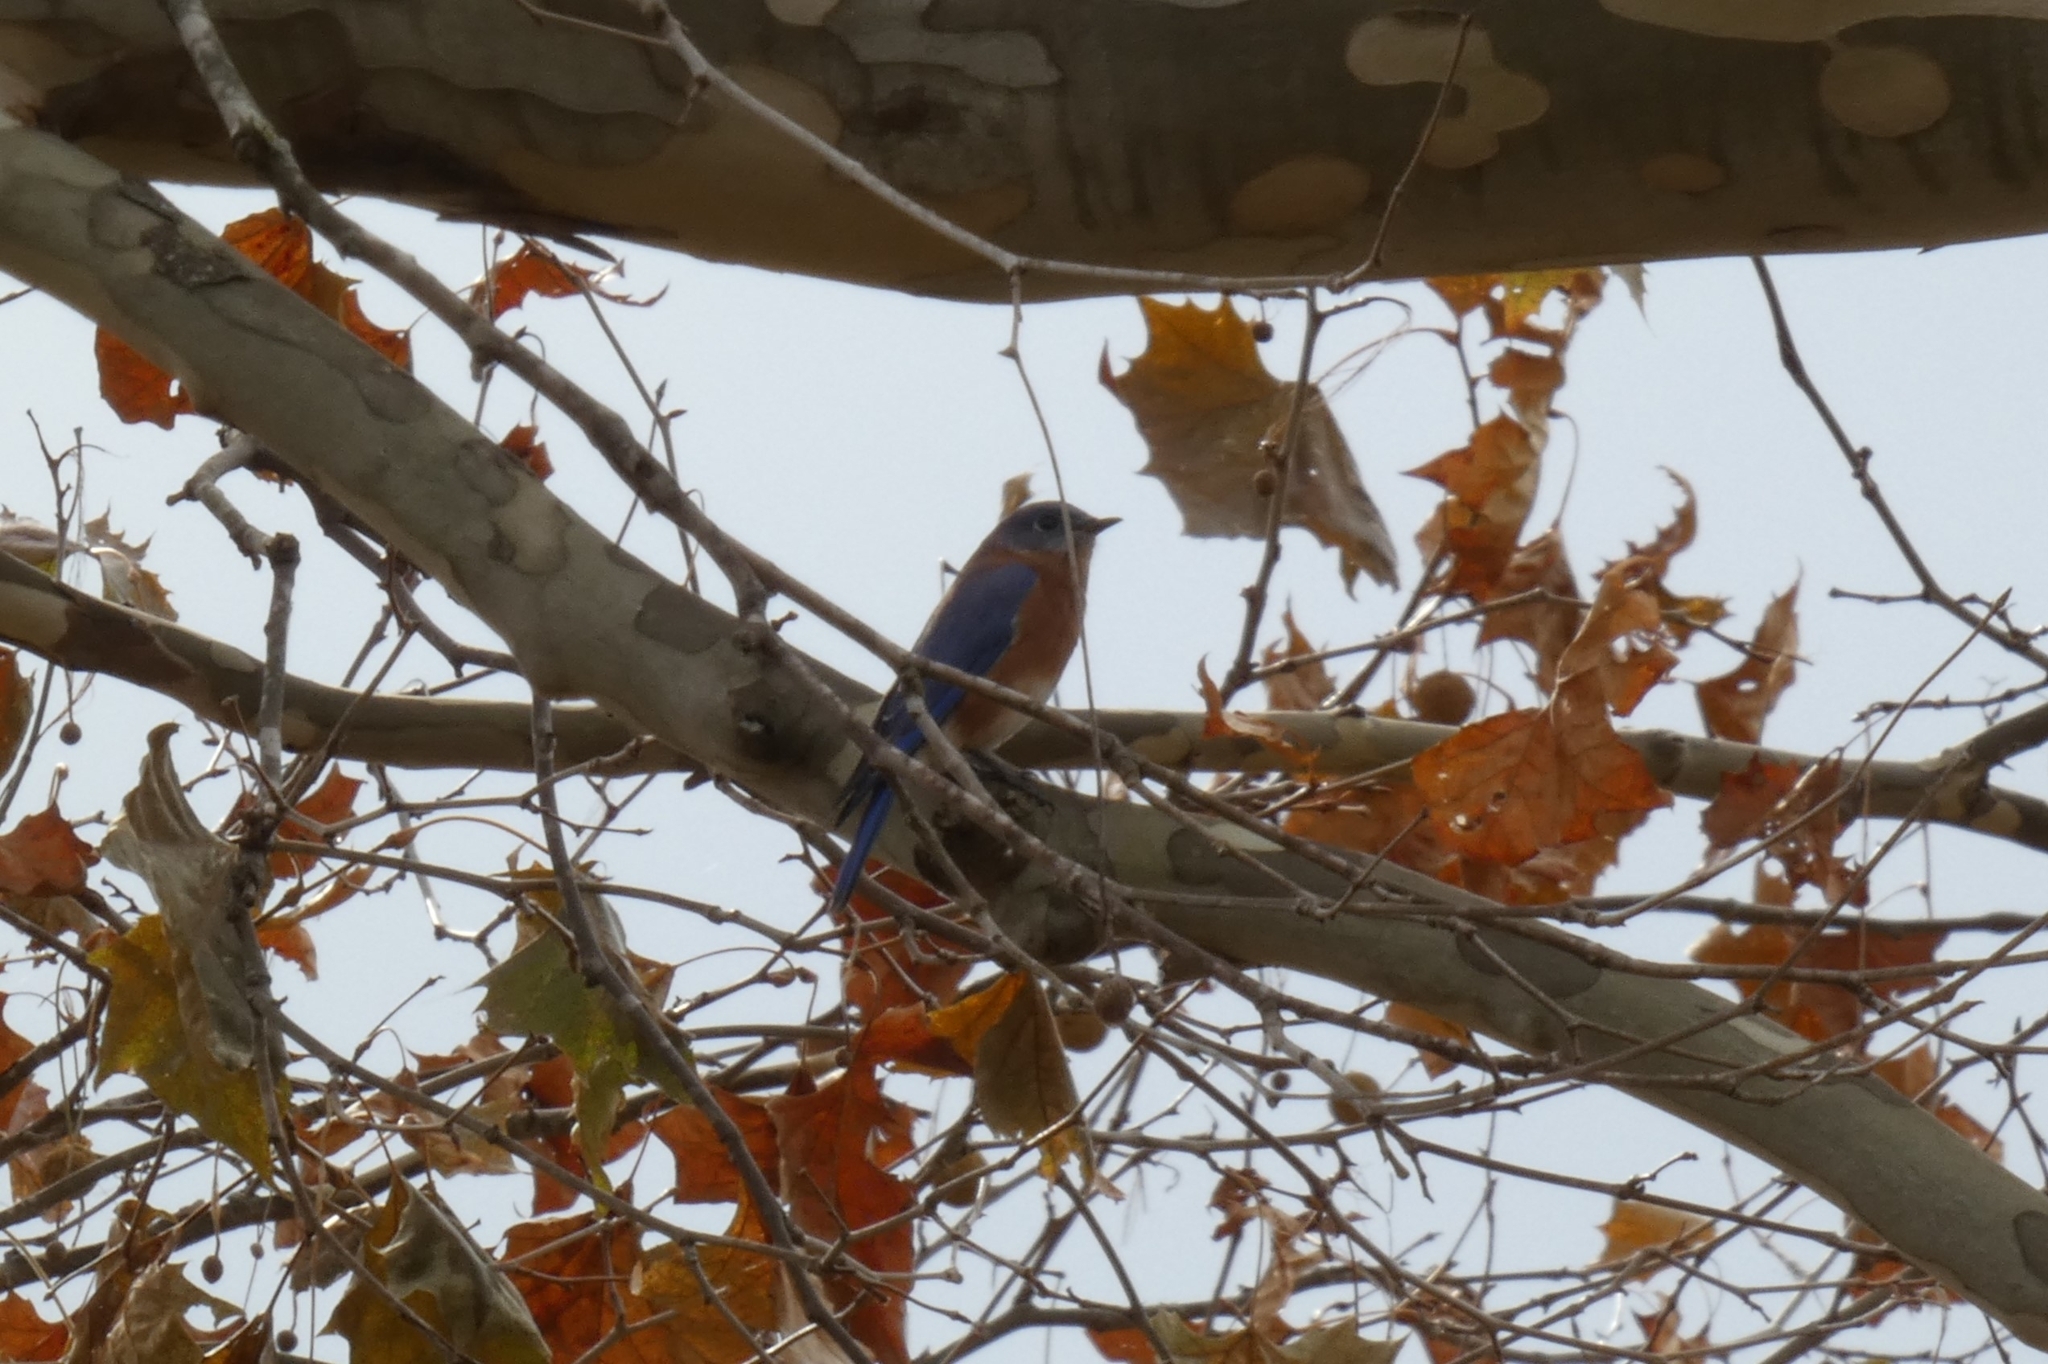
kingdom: Animalia
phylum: Chordata
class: Aves
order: Passeriformes
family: Turdidae
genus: Sialia
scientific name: Sialia sialis
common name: Eastern bluebird
